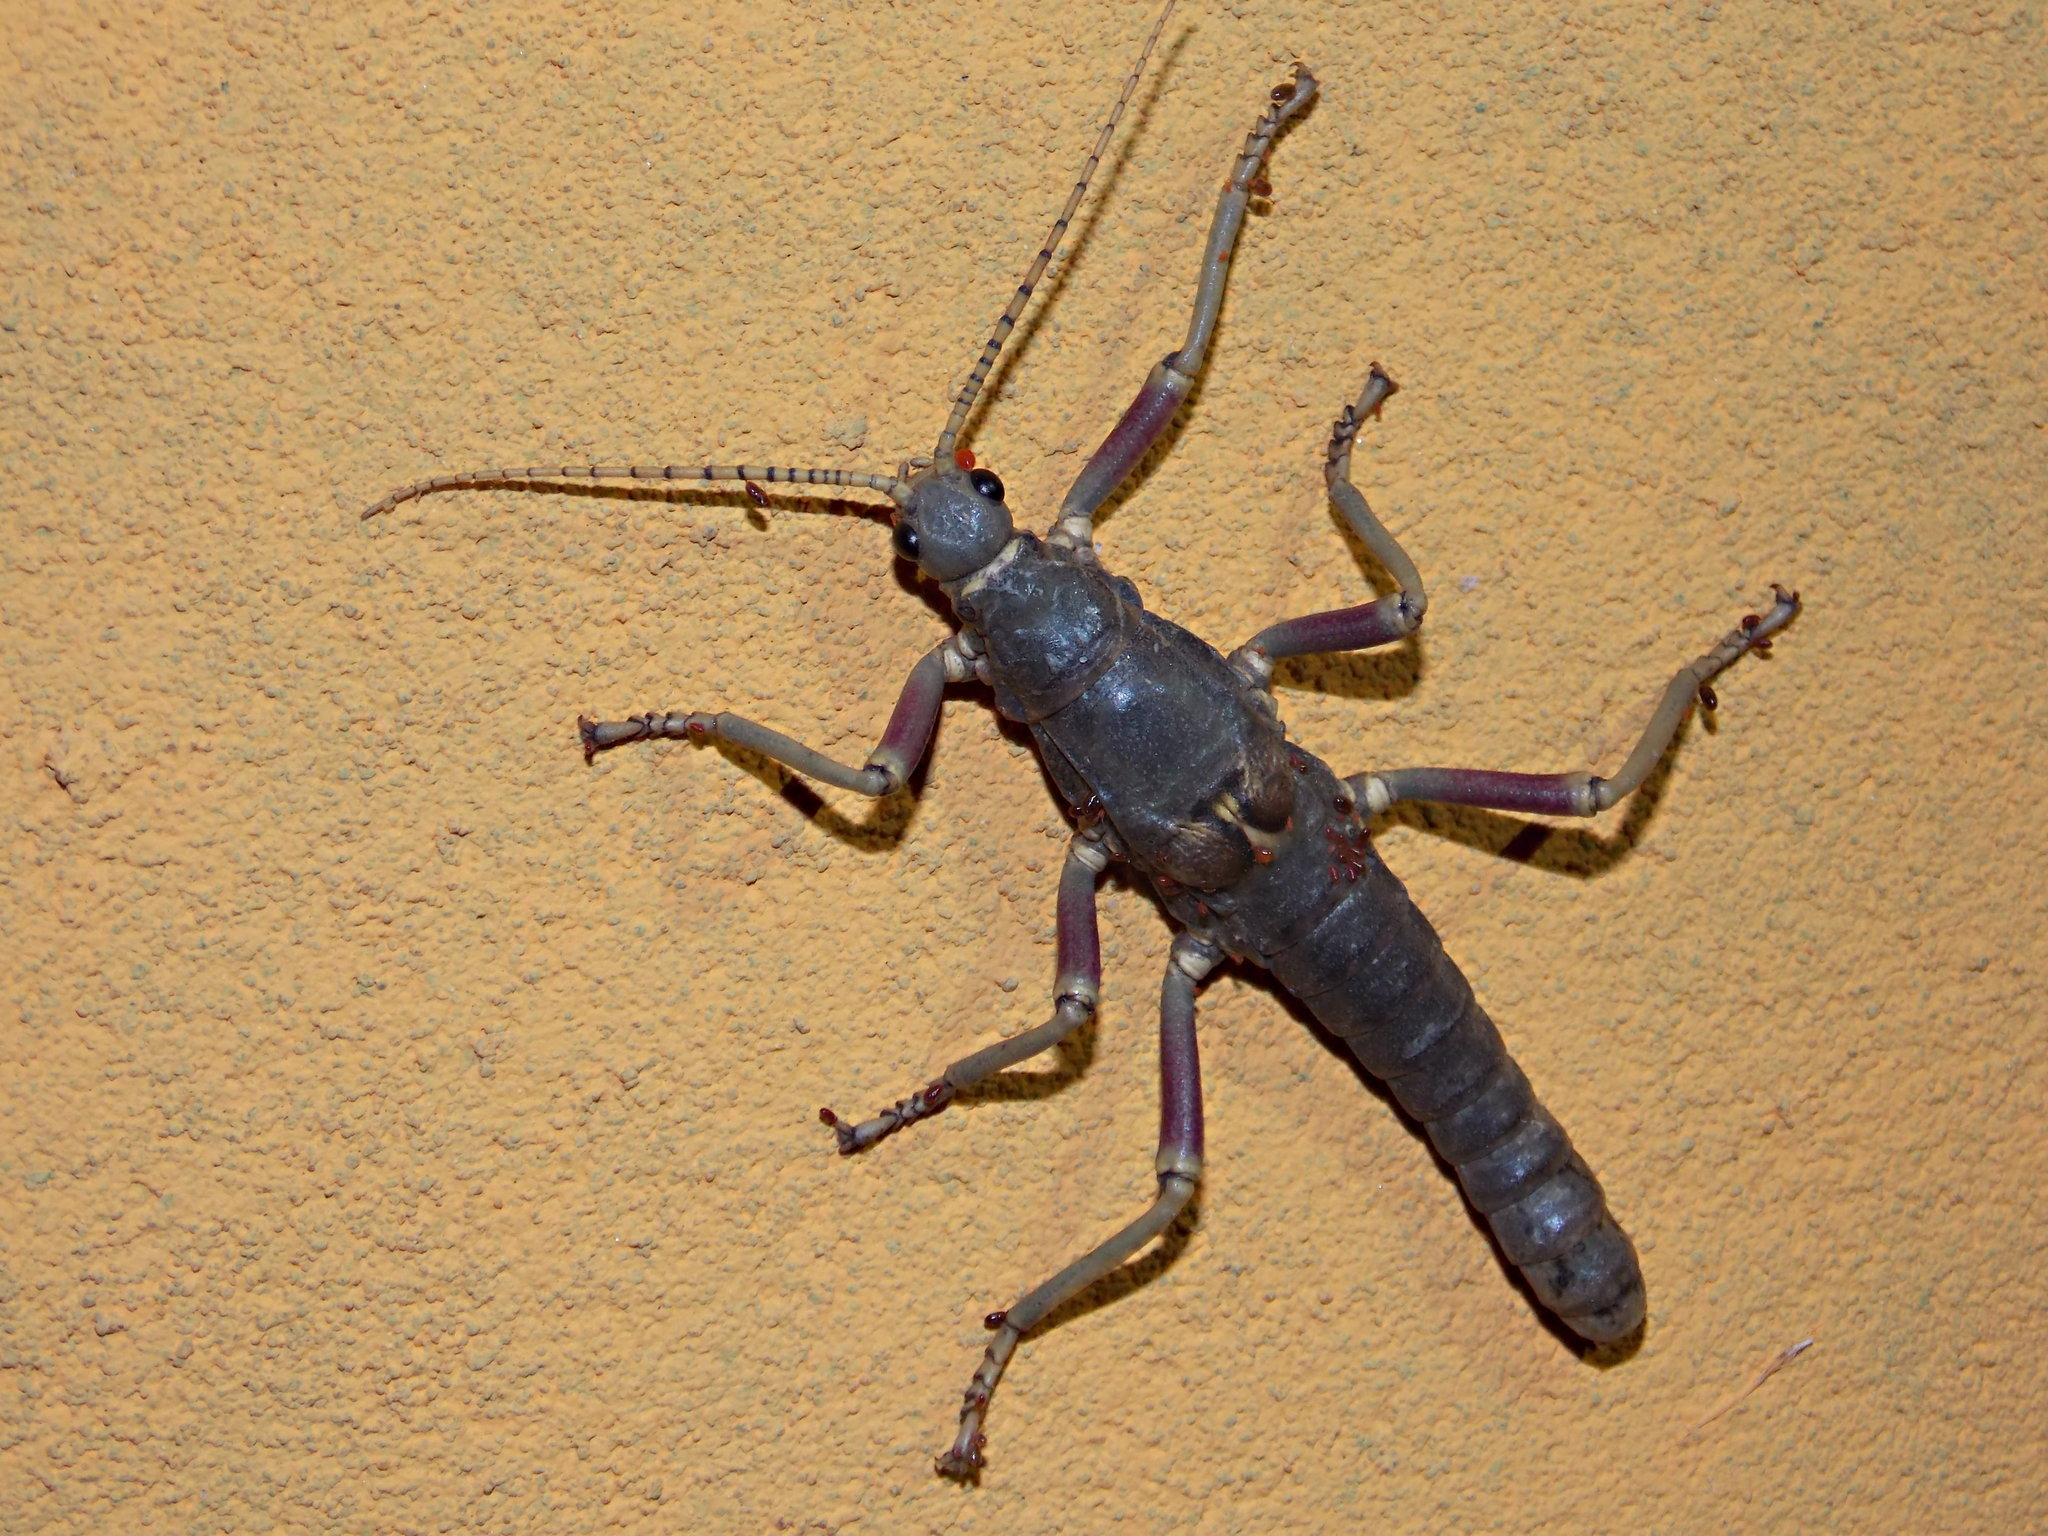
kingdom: Animalia
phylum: Arthropoda
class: Insecta
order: Phasmida
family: Agathemeridae
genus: Agathemera
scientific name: Agathemera luteola
